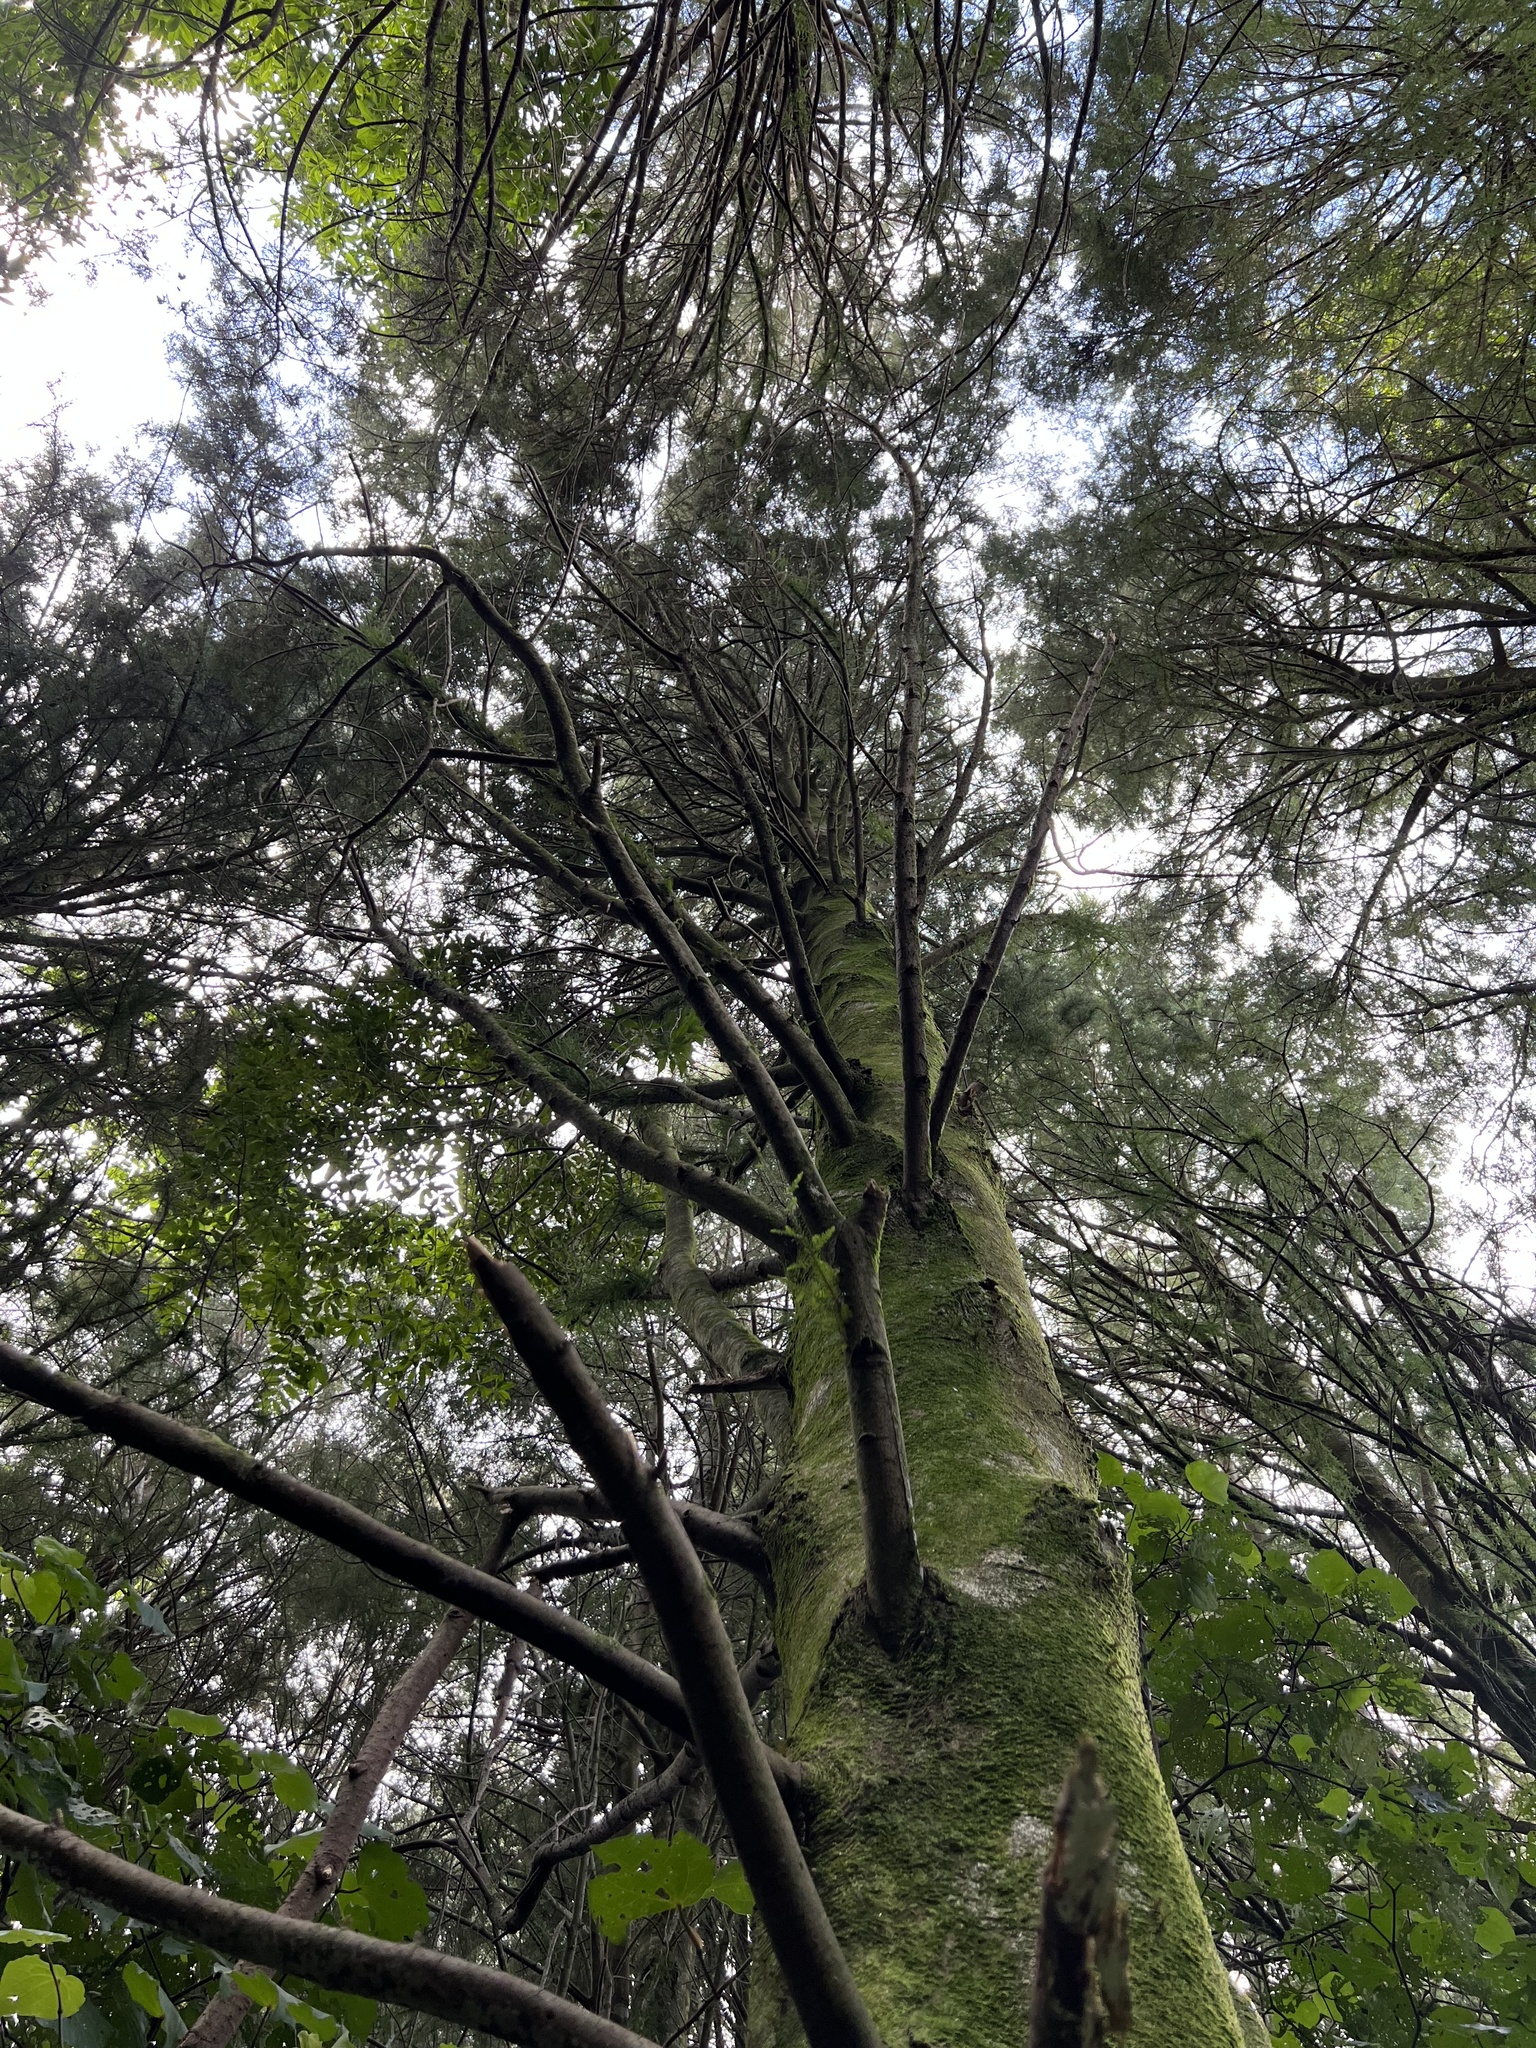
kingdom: Plantae
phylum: Tracheophyta
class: Pinopsida
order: Pinales
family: Podocarpaceae
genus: Dacrycarpus
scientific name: Dacrycarpus dacrydioides
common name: White pine
